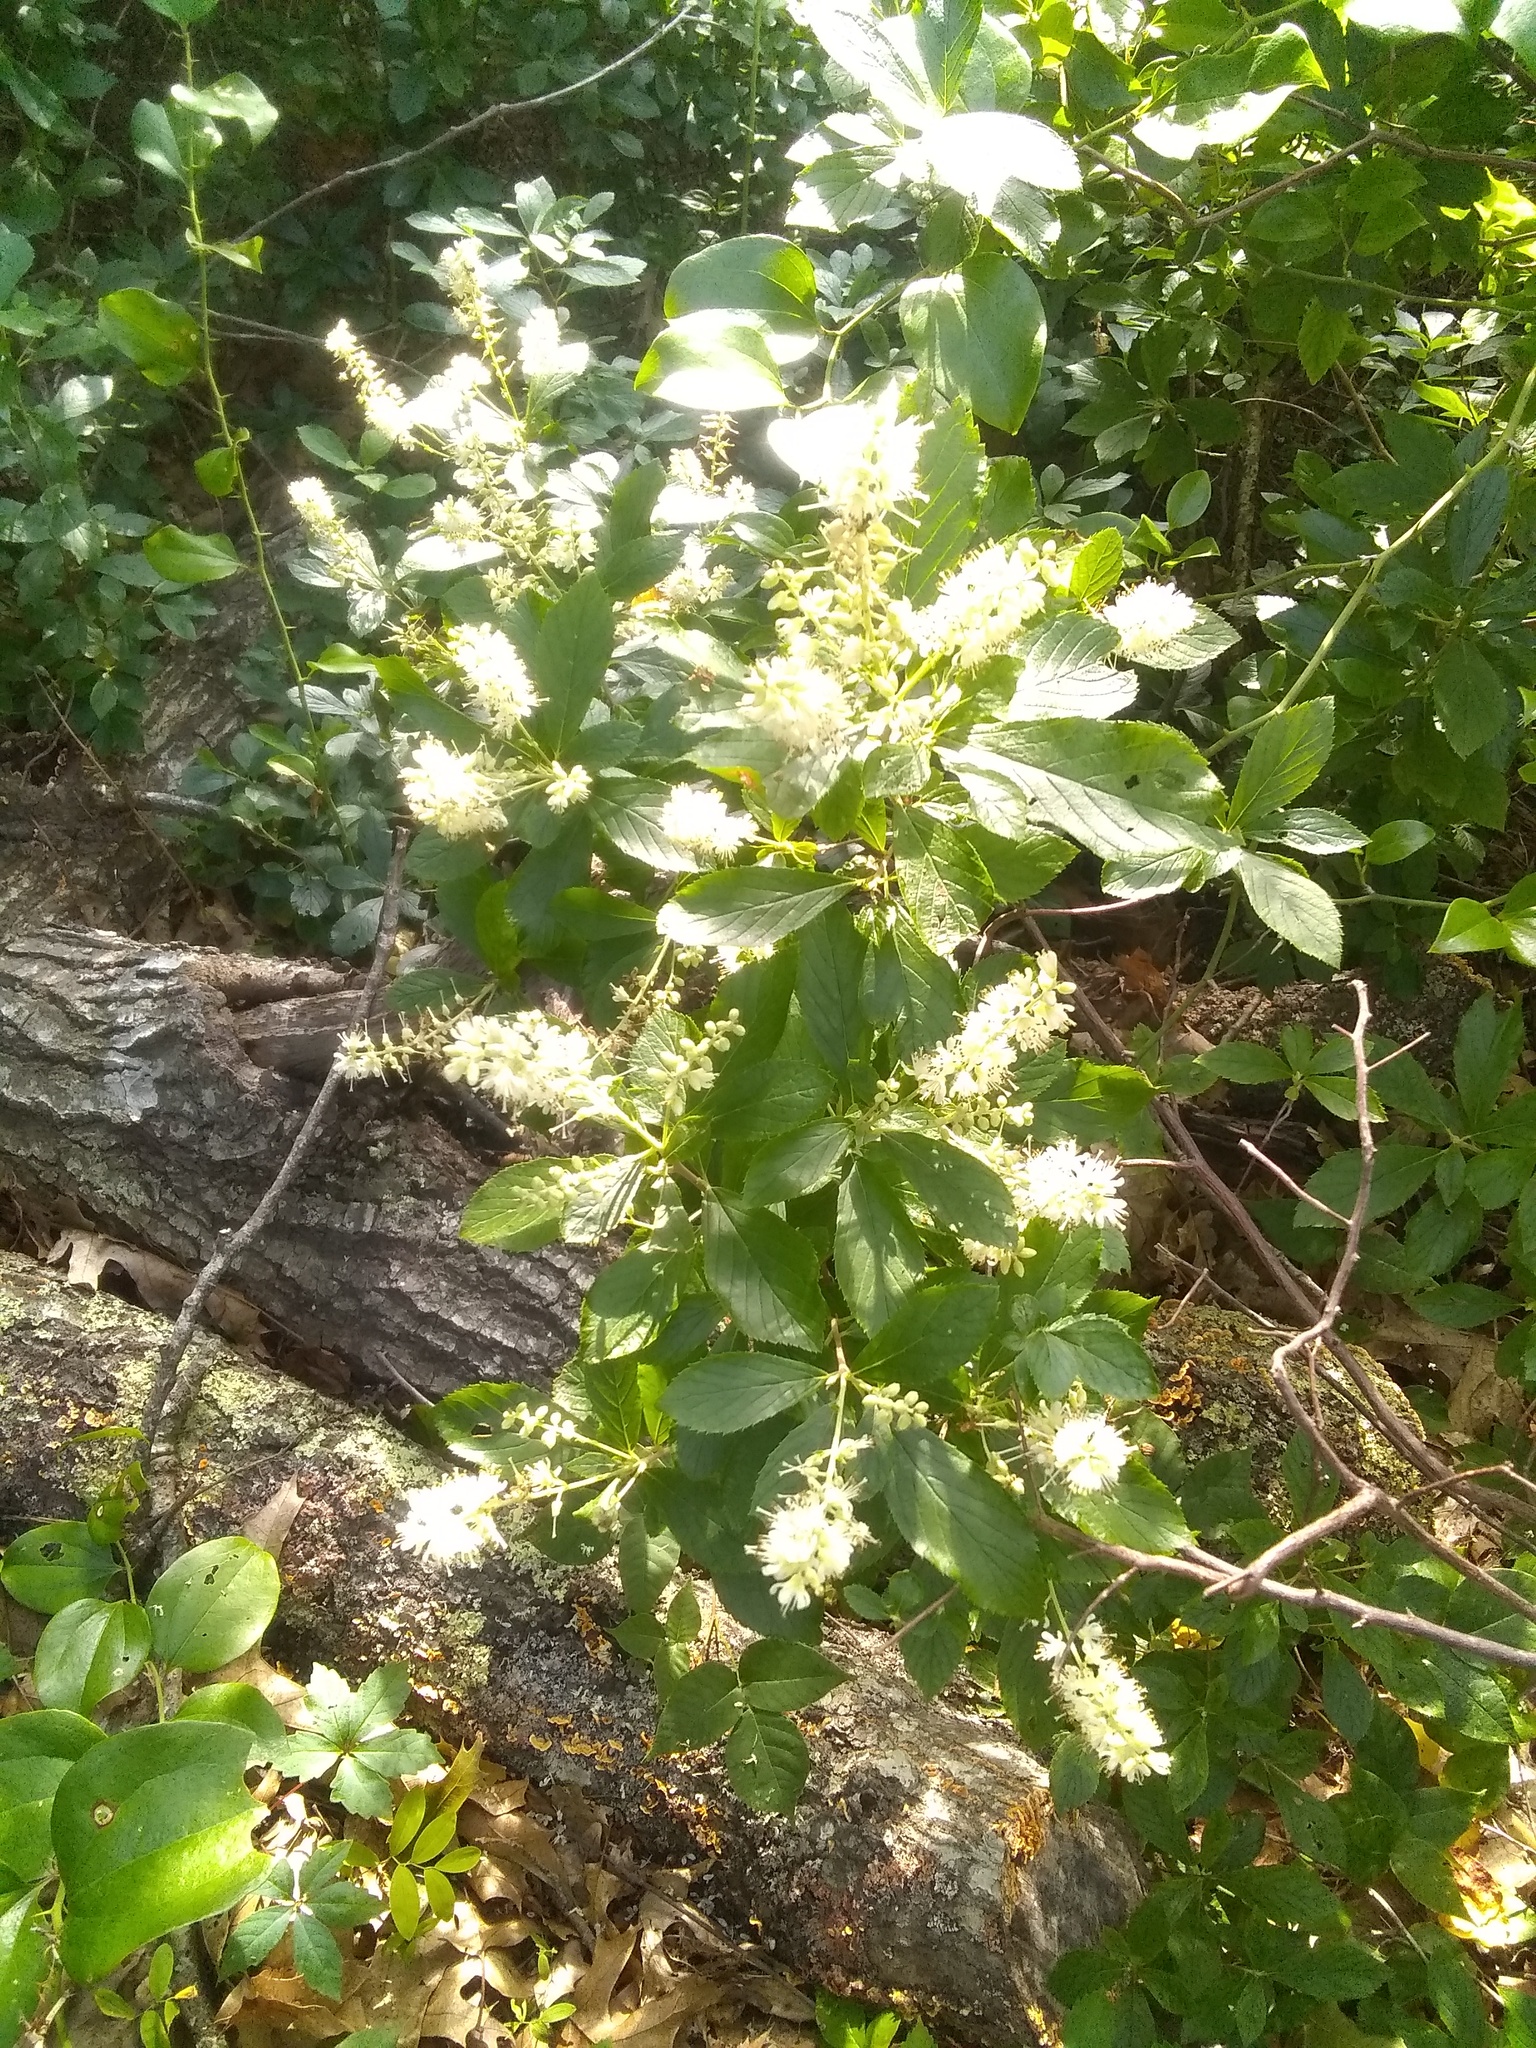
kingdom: Plantae
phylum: Tracheophyta
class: Magnoliopsida
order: Ericales
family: Clethraceae
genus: Clethra
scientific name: Clethra alnifolia
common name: Sweet pepperbush
